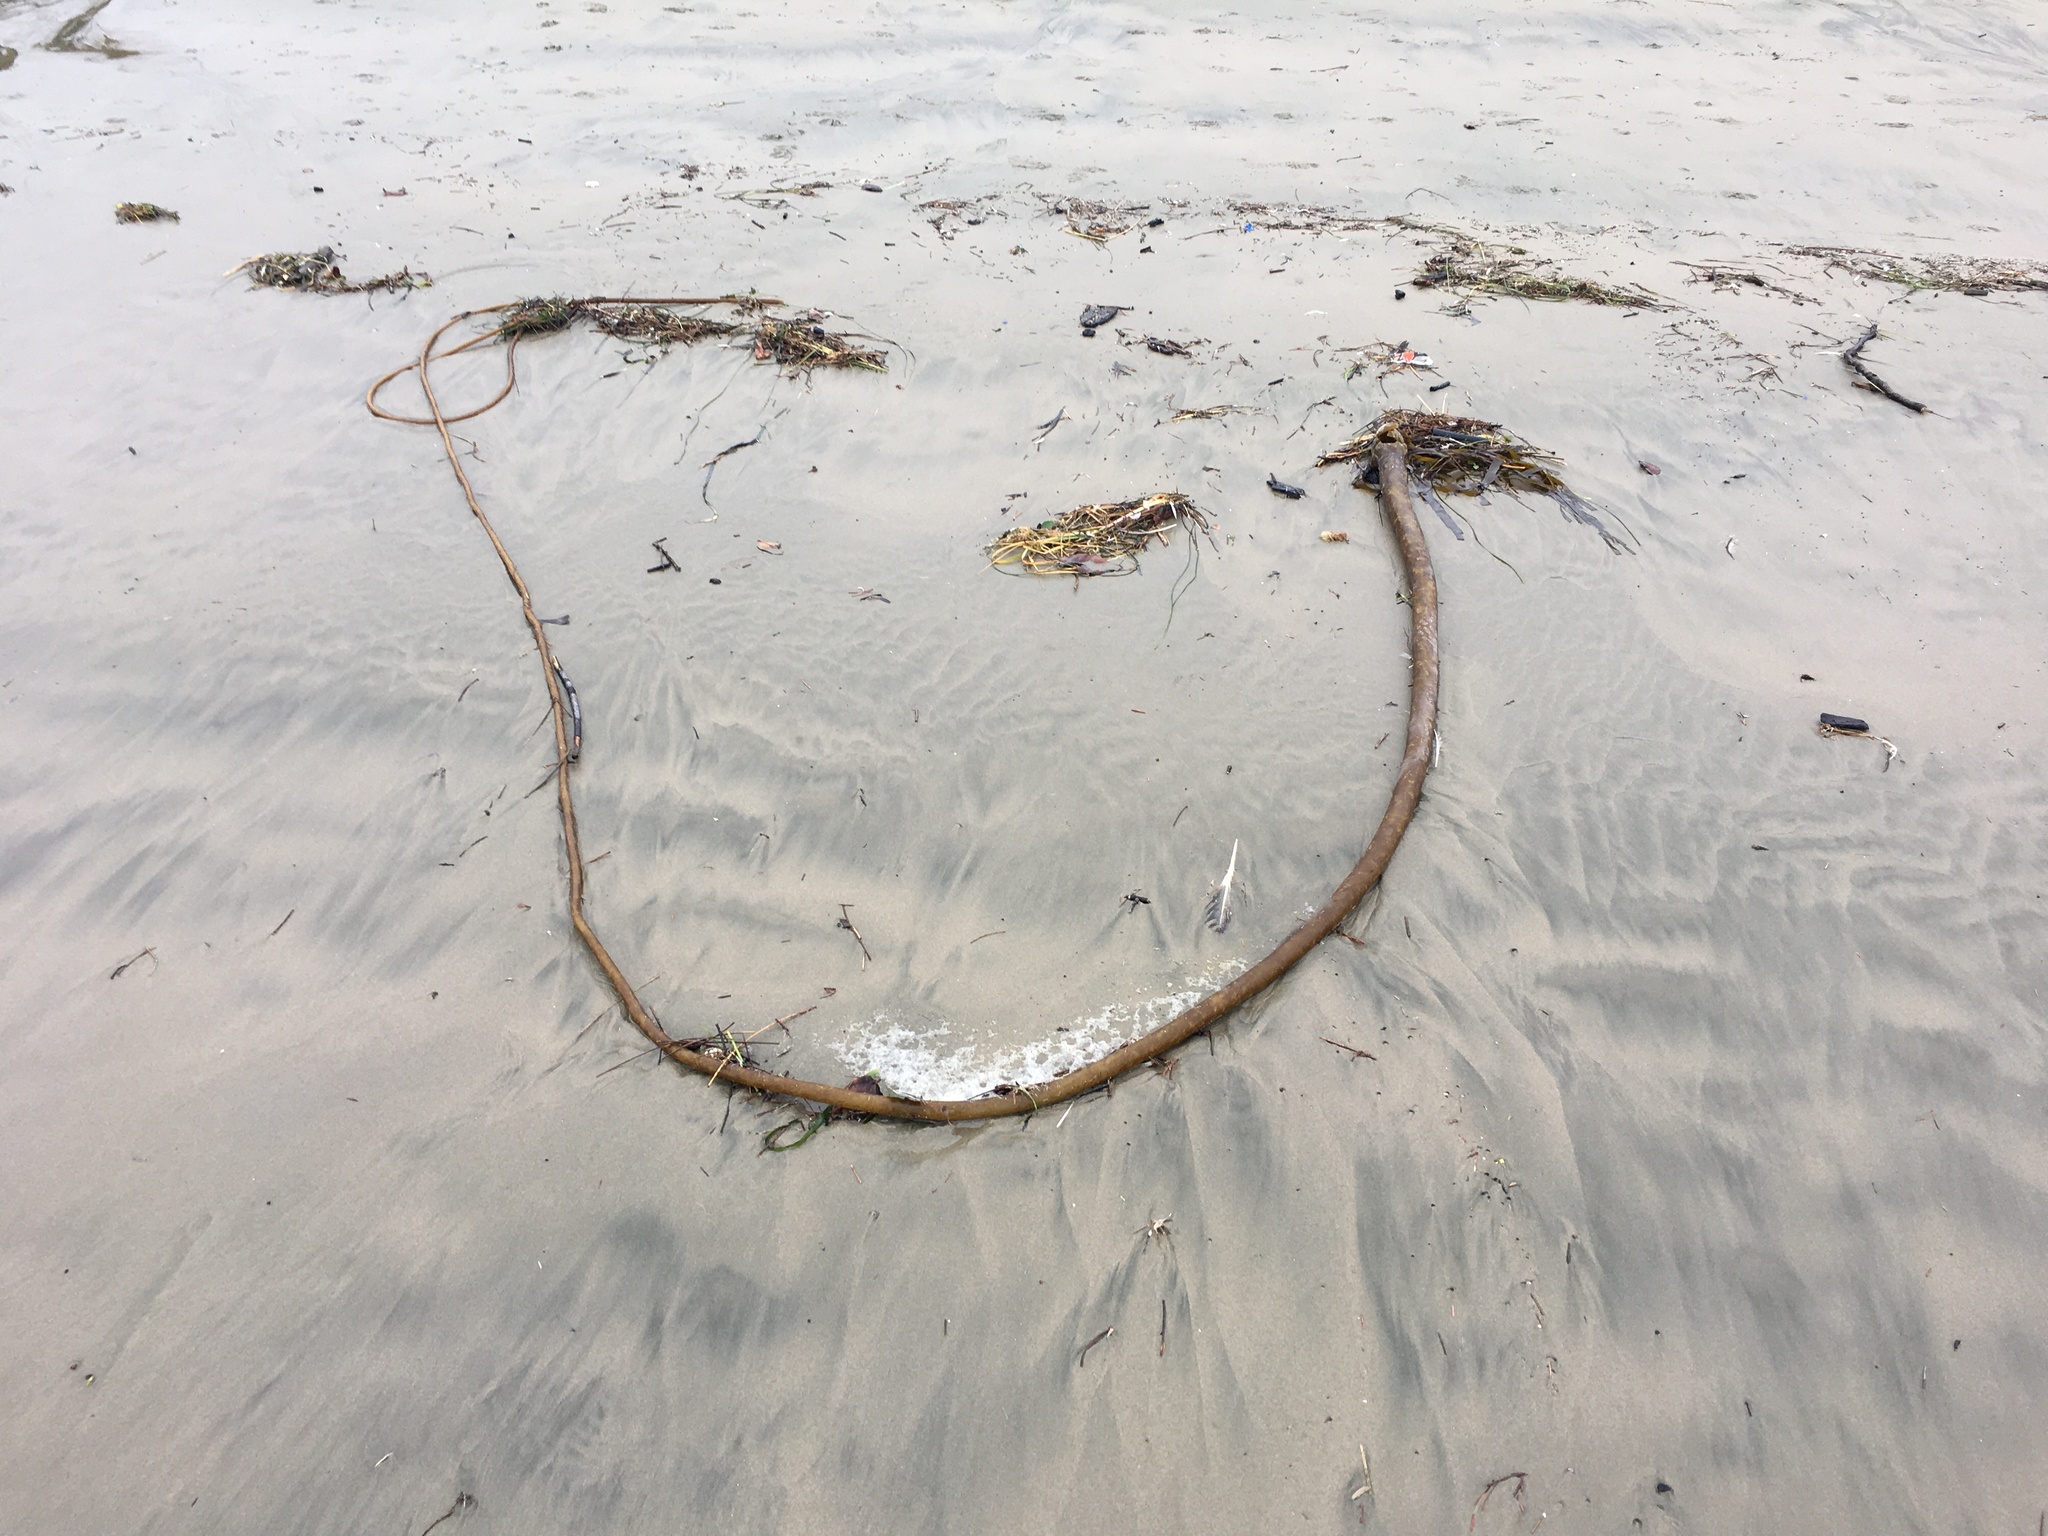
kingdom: Chromista
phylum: Ochrophyta
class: Phaeophyceae
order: Laminariales
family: Laminariaceae
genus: Nereocystis
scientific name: Nereocystis luetkeana
